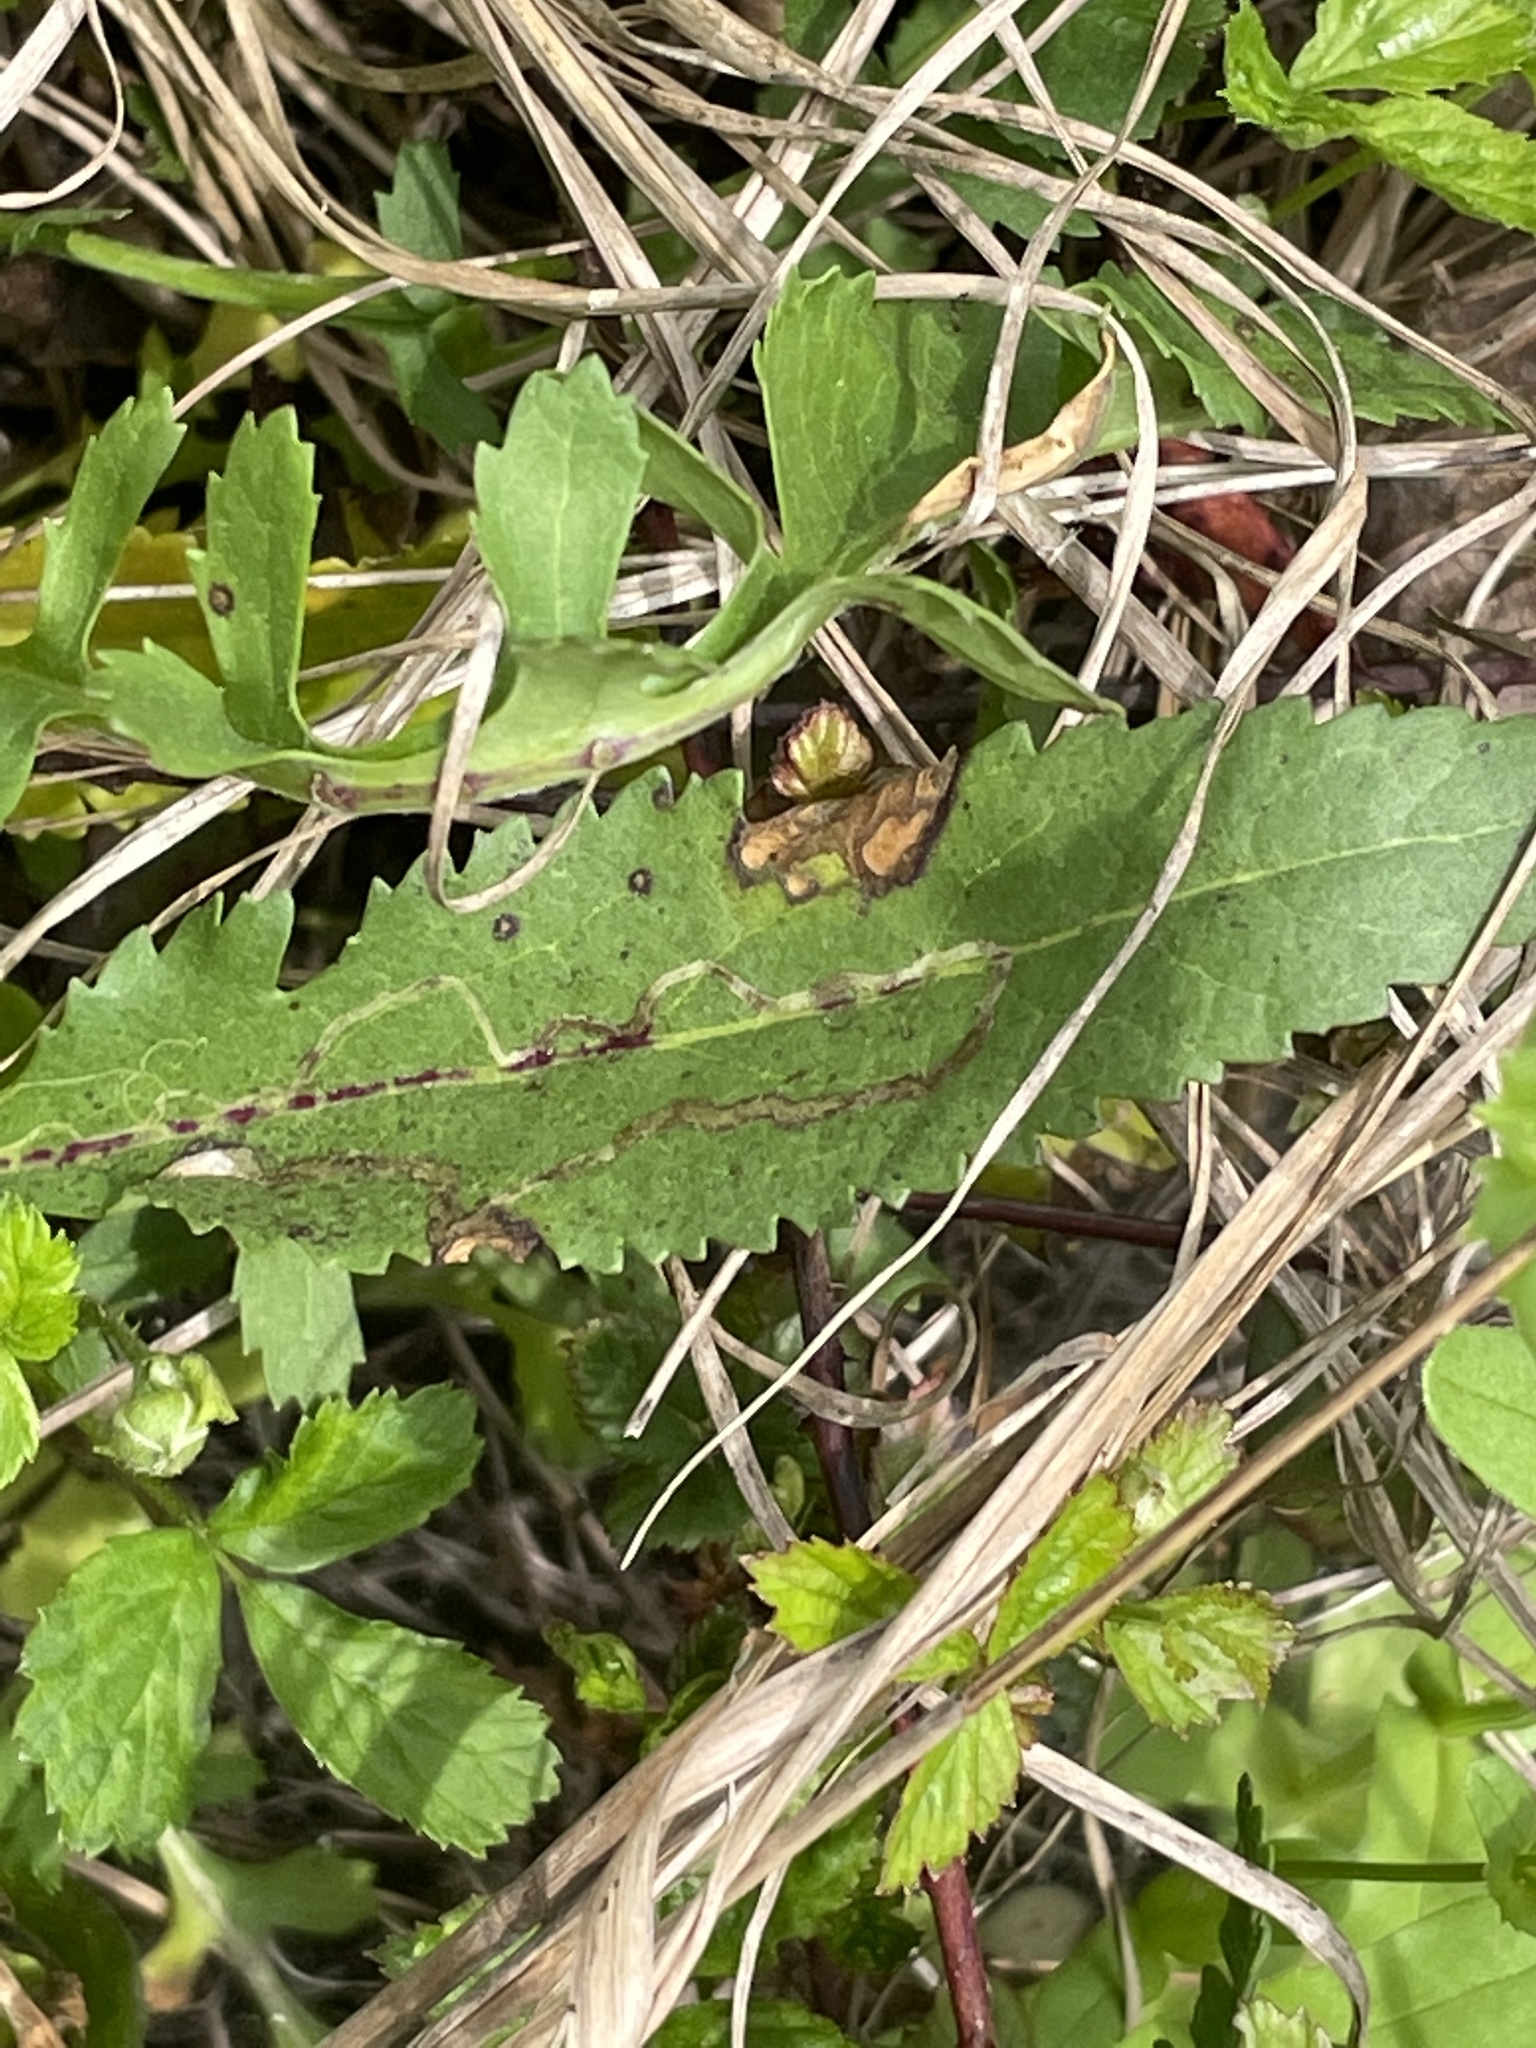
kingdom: Plantae
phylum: Tracheophyta
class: Magnoliopsida
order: Asterales
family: Asteraceae
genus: Packera
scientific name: Packera anonyma
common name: Small ragwort
